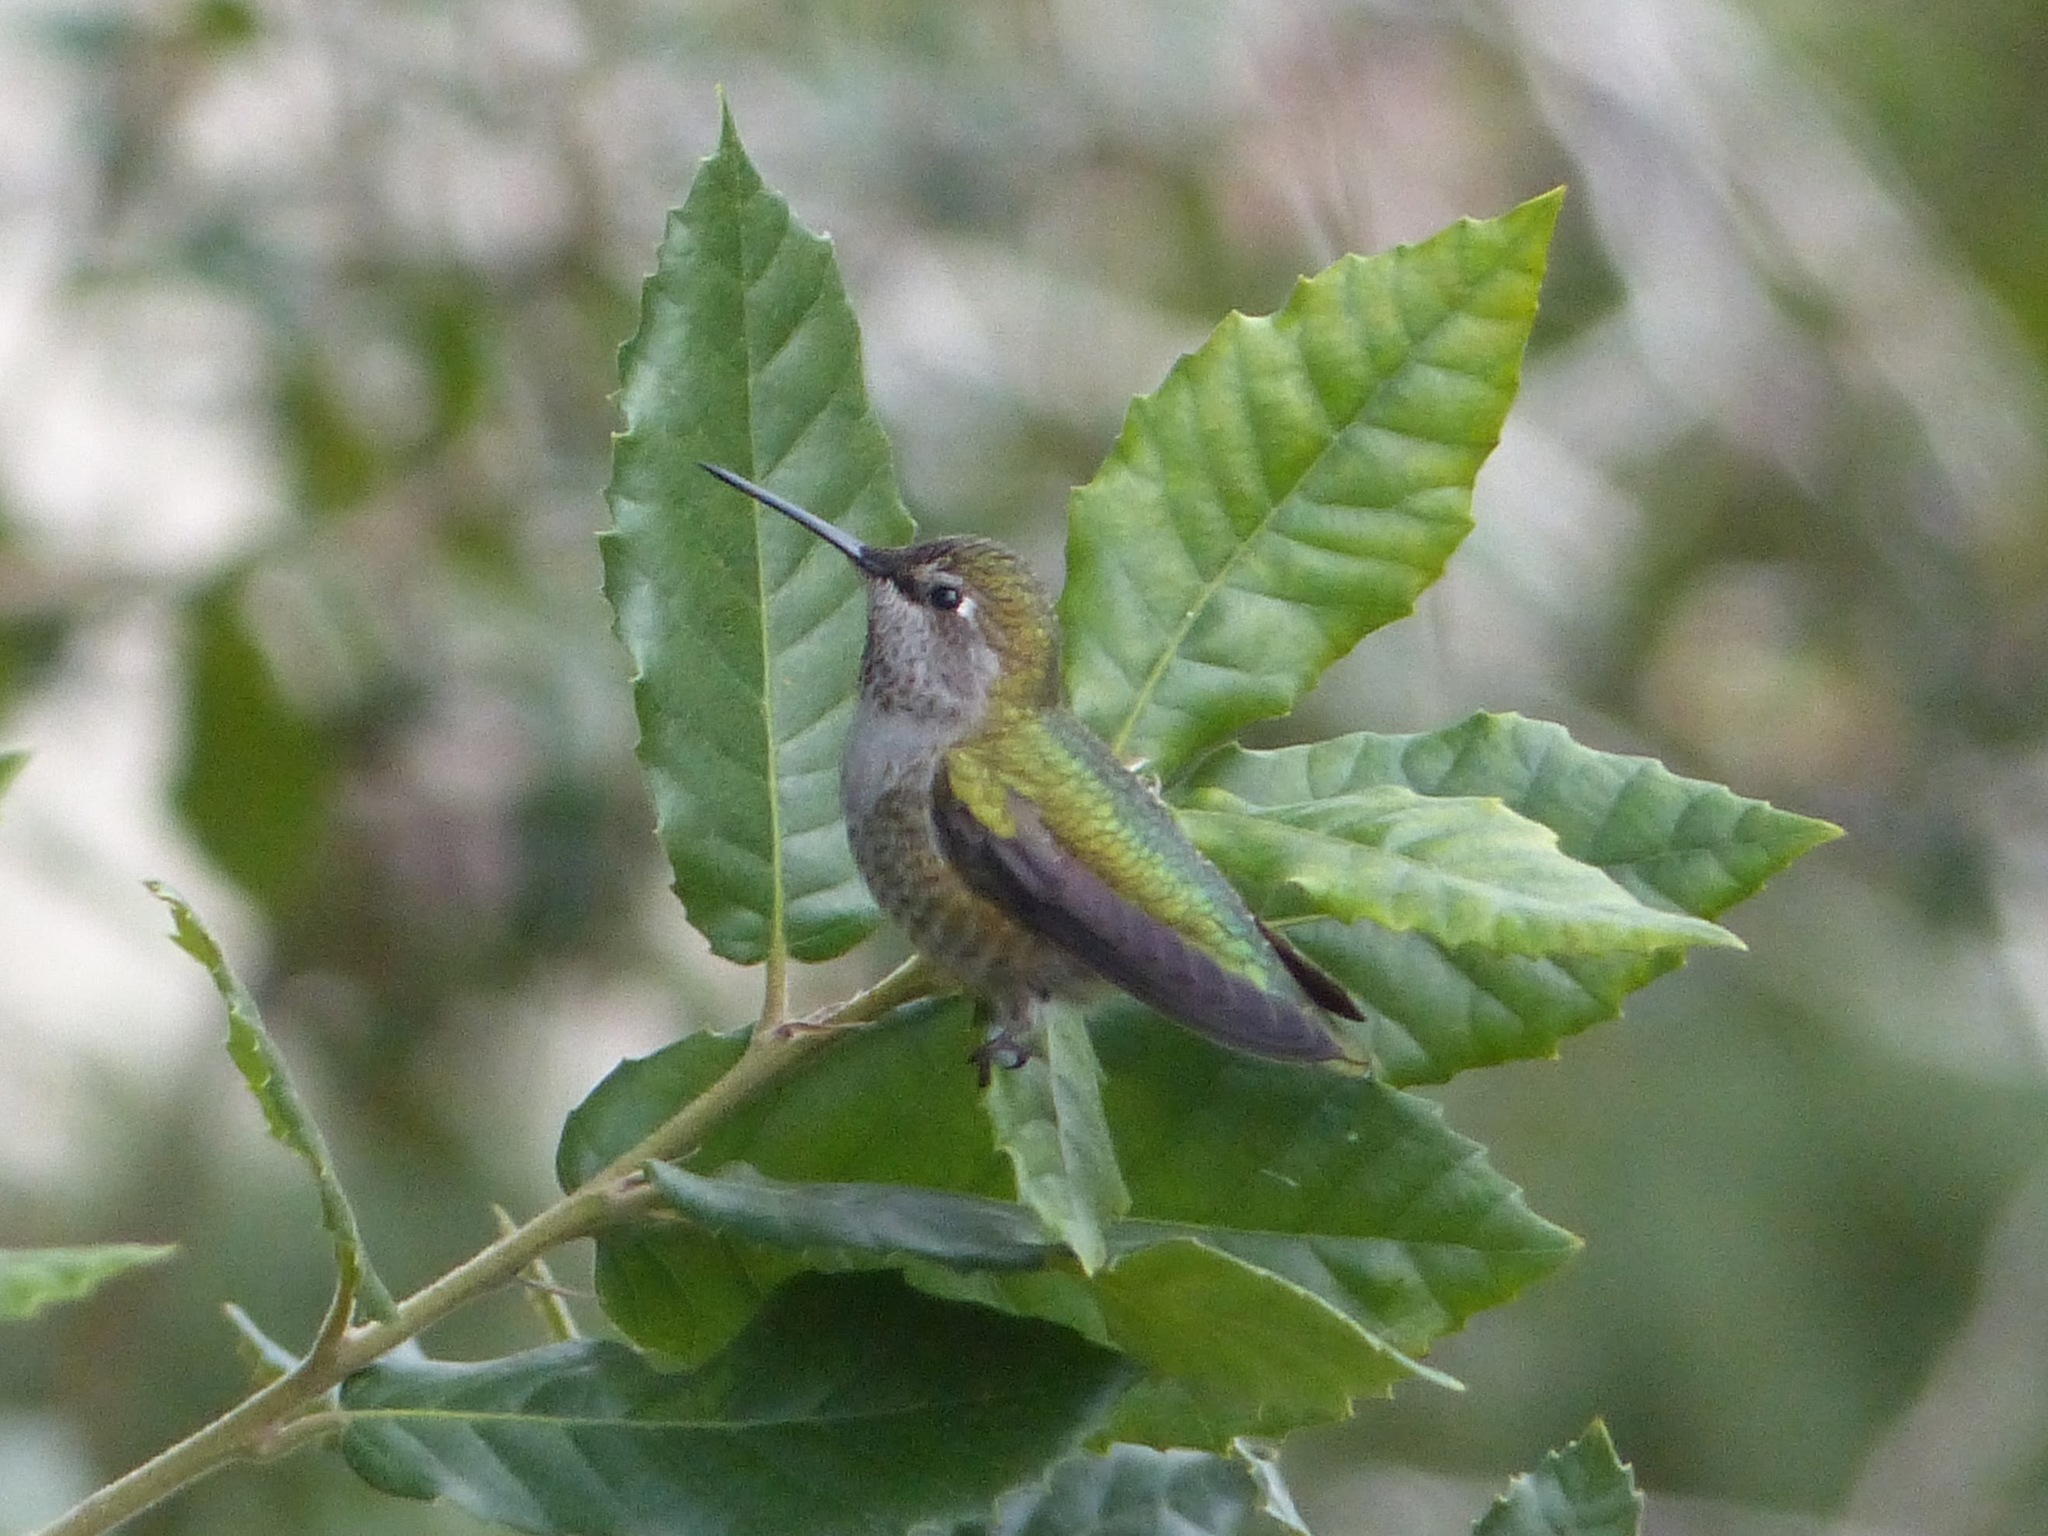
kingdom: Animalia
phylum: Chordata
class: Aves
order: Apodiformes
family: Trochilidae
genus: Calypte
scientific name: Calypte anna
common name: Anna's hummingbird
